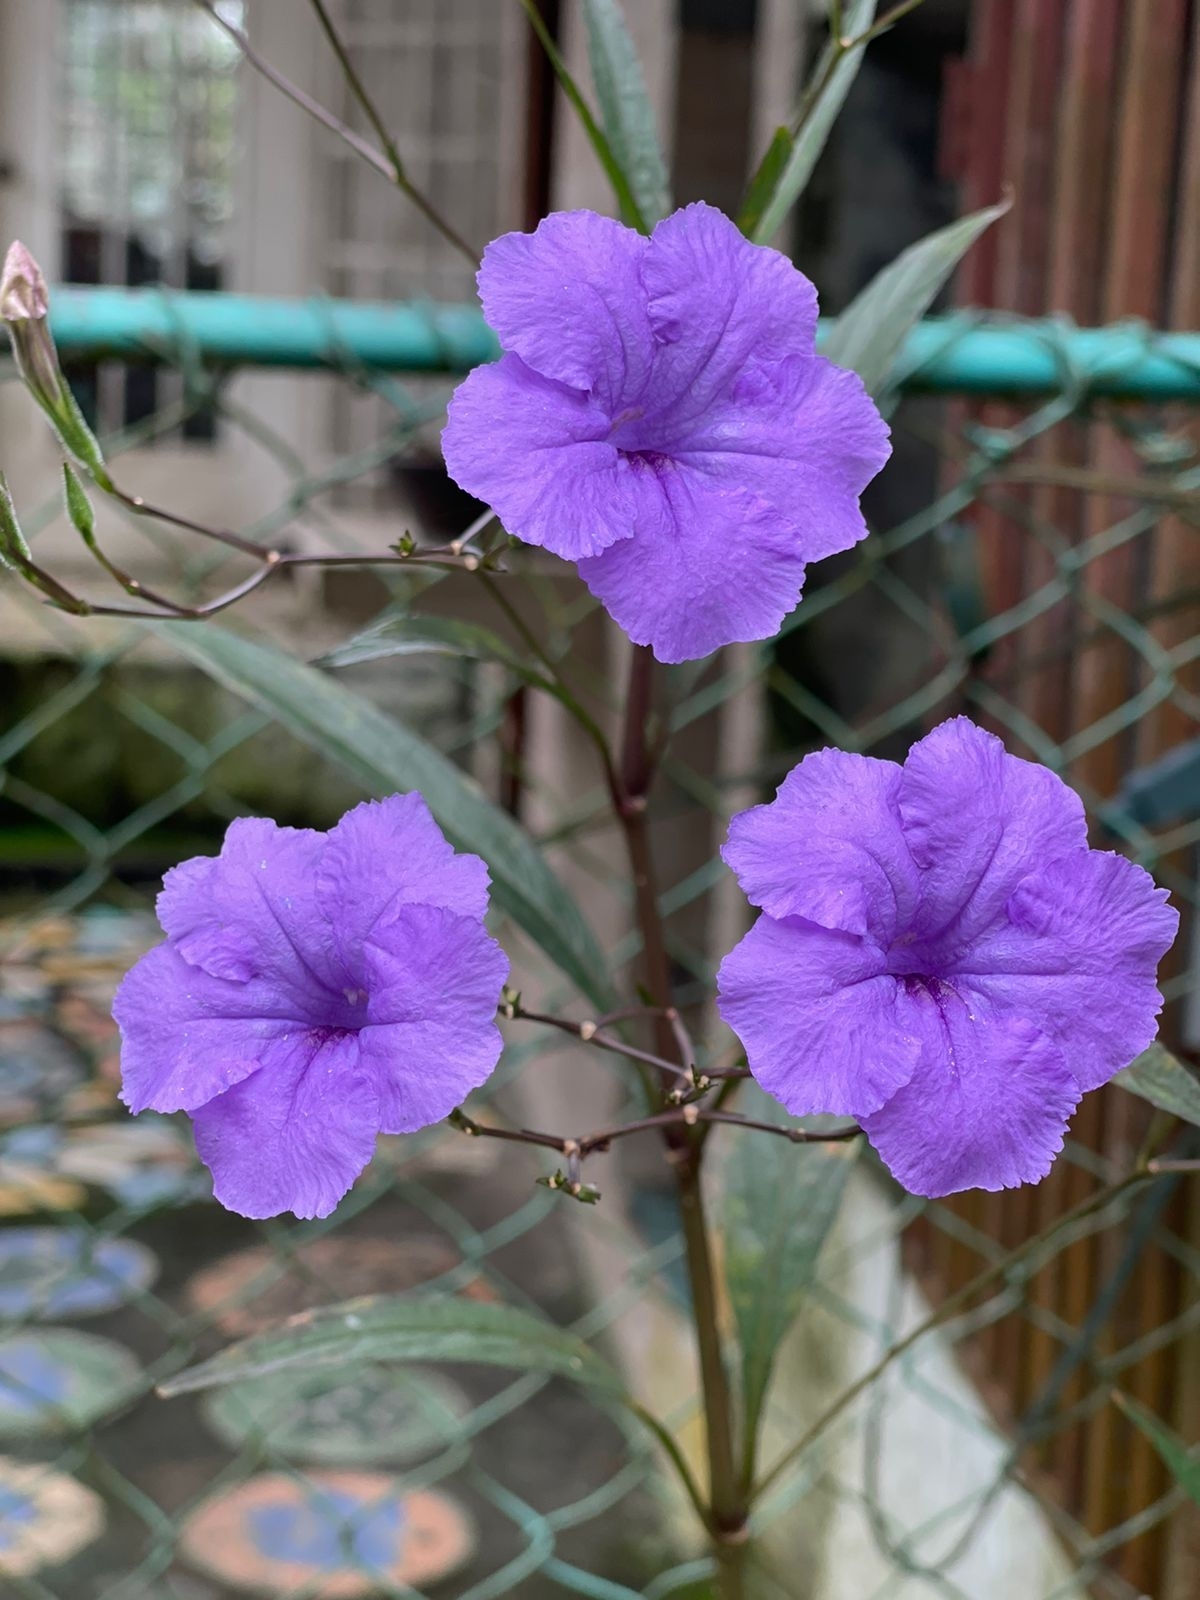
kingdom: Plantae
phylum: Tracheophyta
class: Magnoliopsida
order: Lamiales
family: Acanthaceae
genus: Ruellia
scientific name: Ruellia simplex
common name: Softseed wild petunia
